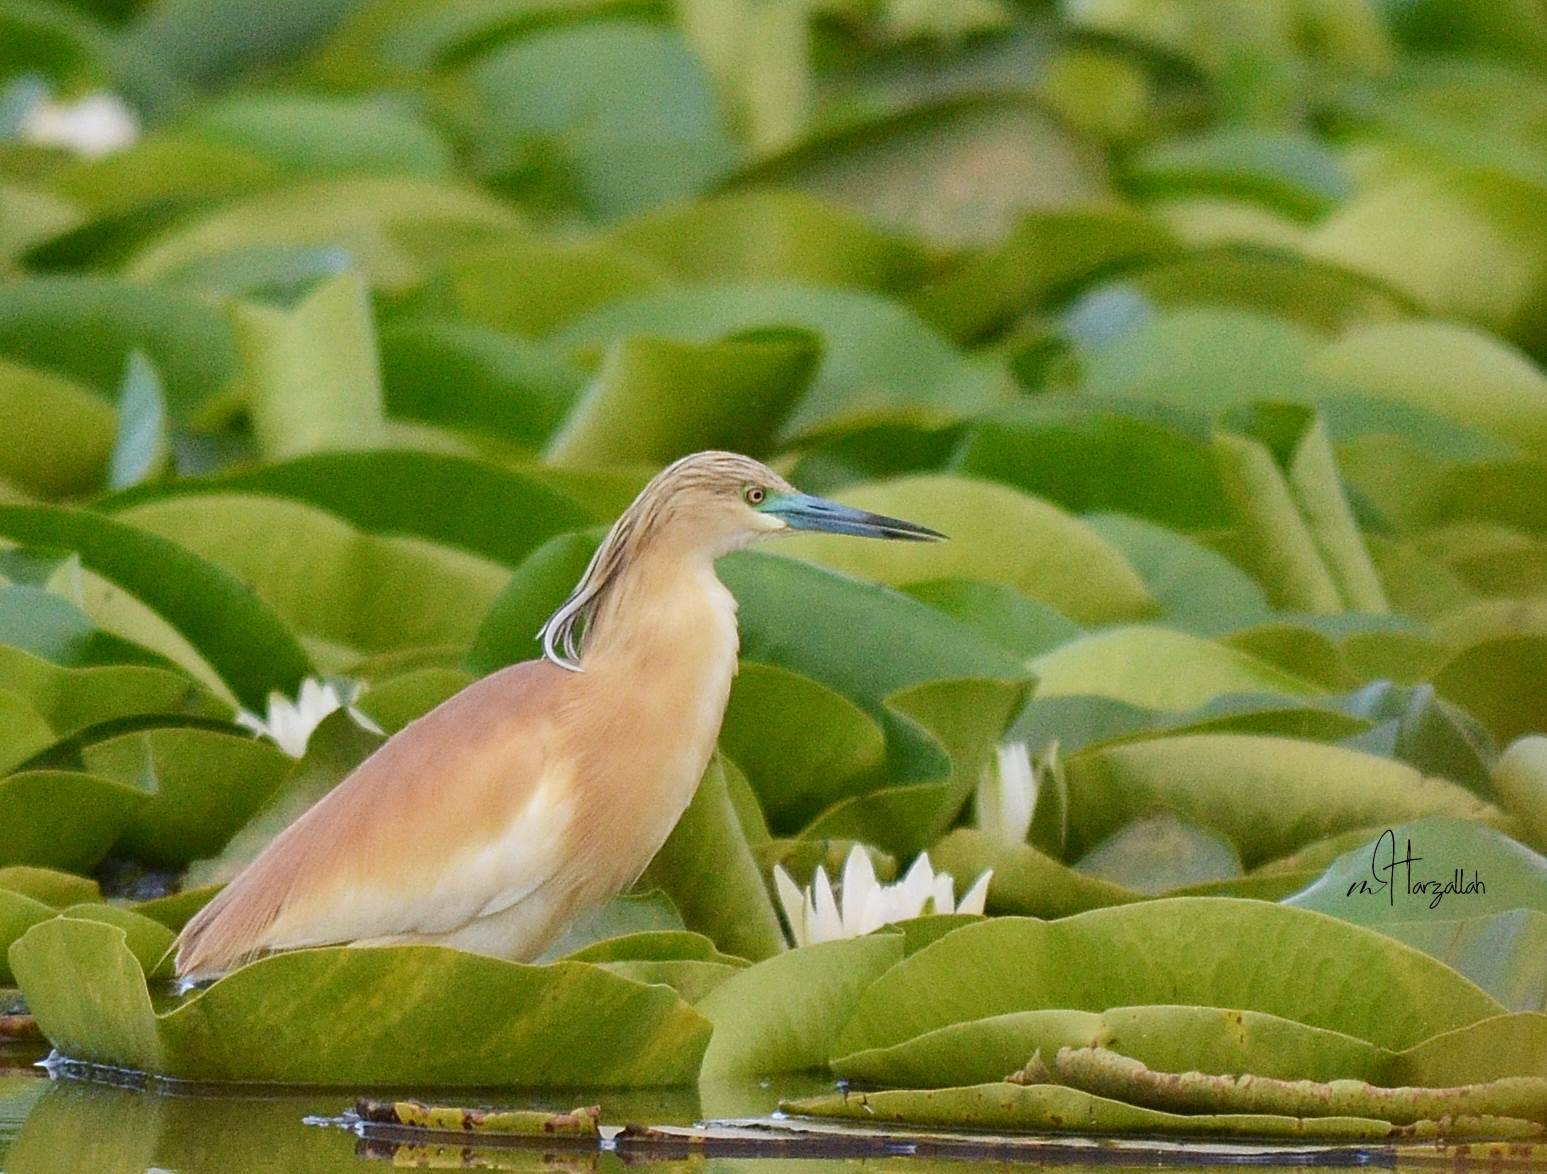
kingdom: Animalia
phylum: Chordata
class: Aves
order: Pelecaniformes
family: Ardeidae
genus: Ardeola
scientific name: Ardeola ralloides
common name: Squacco heron
